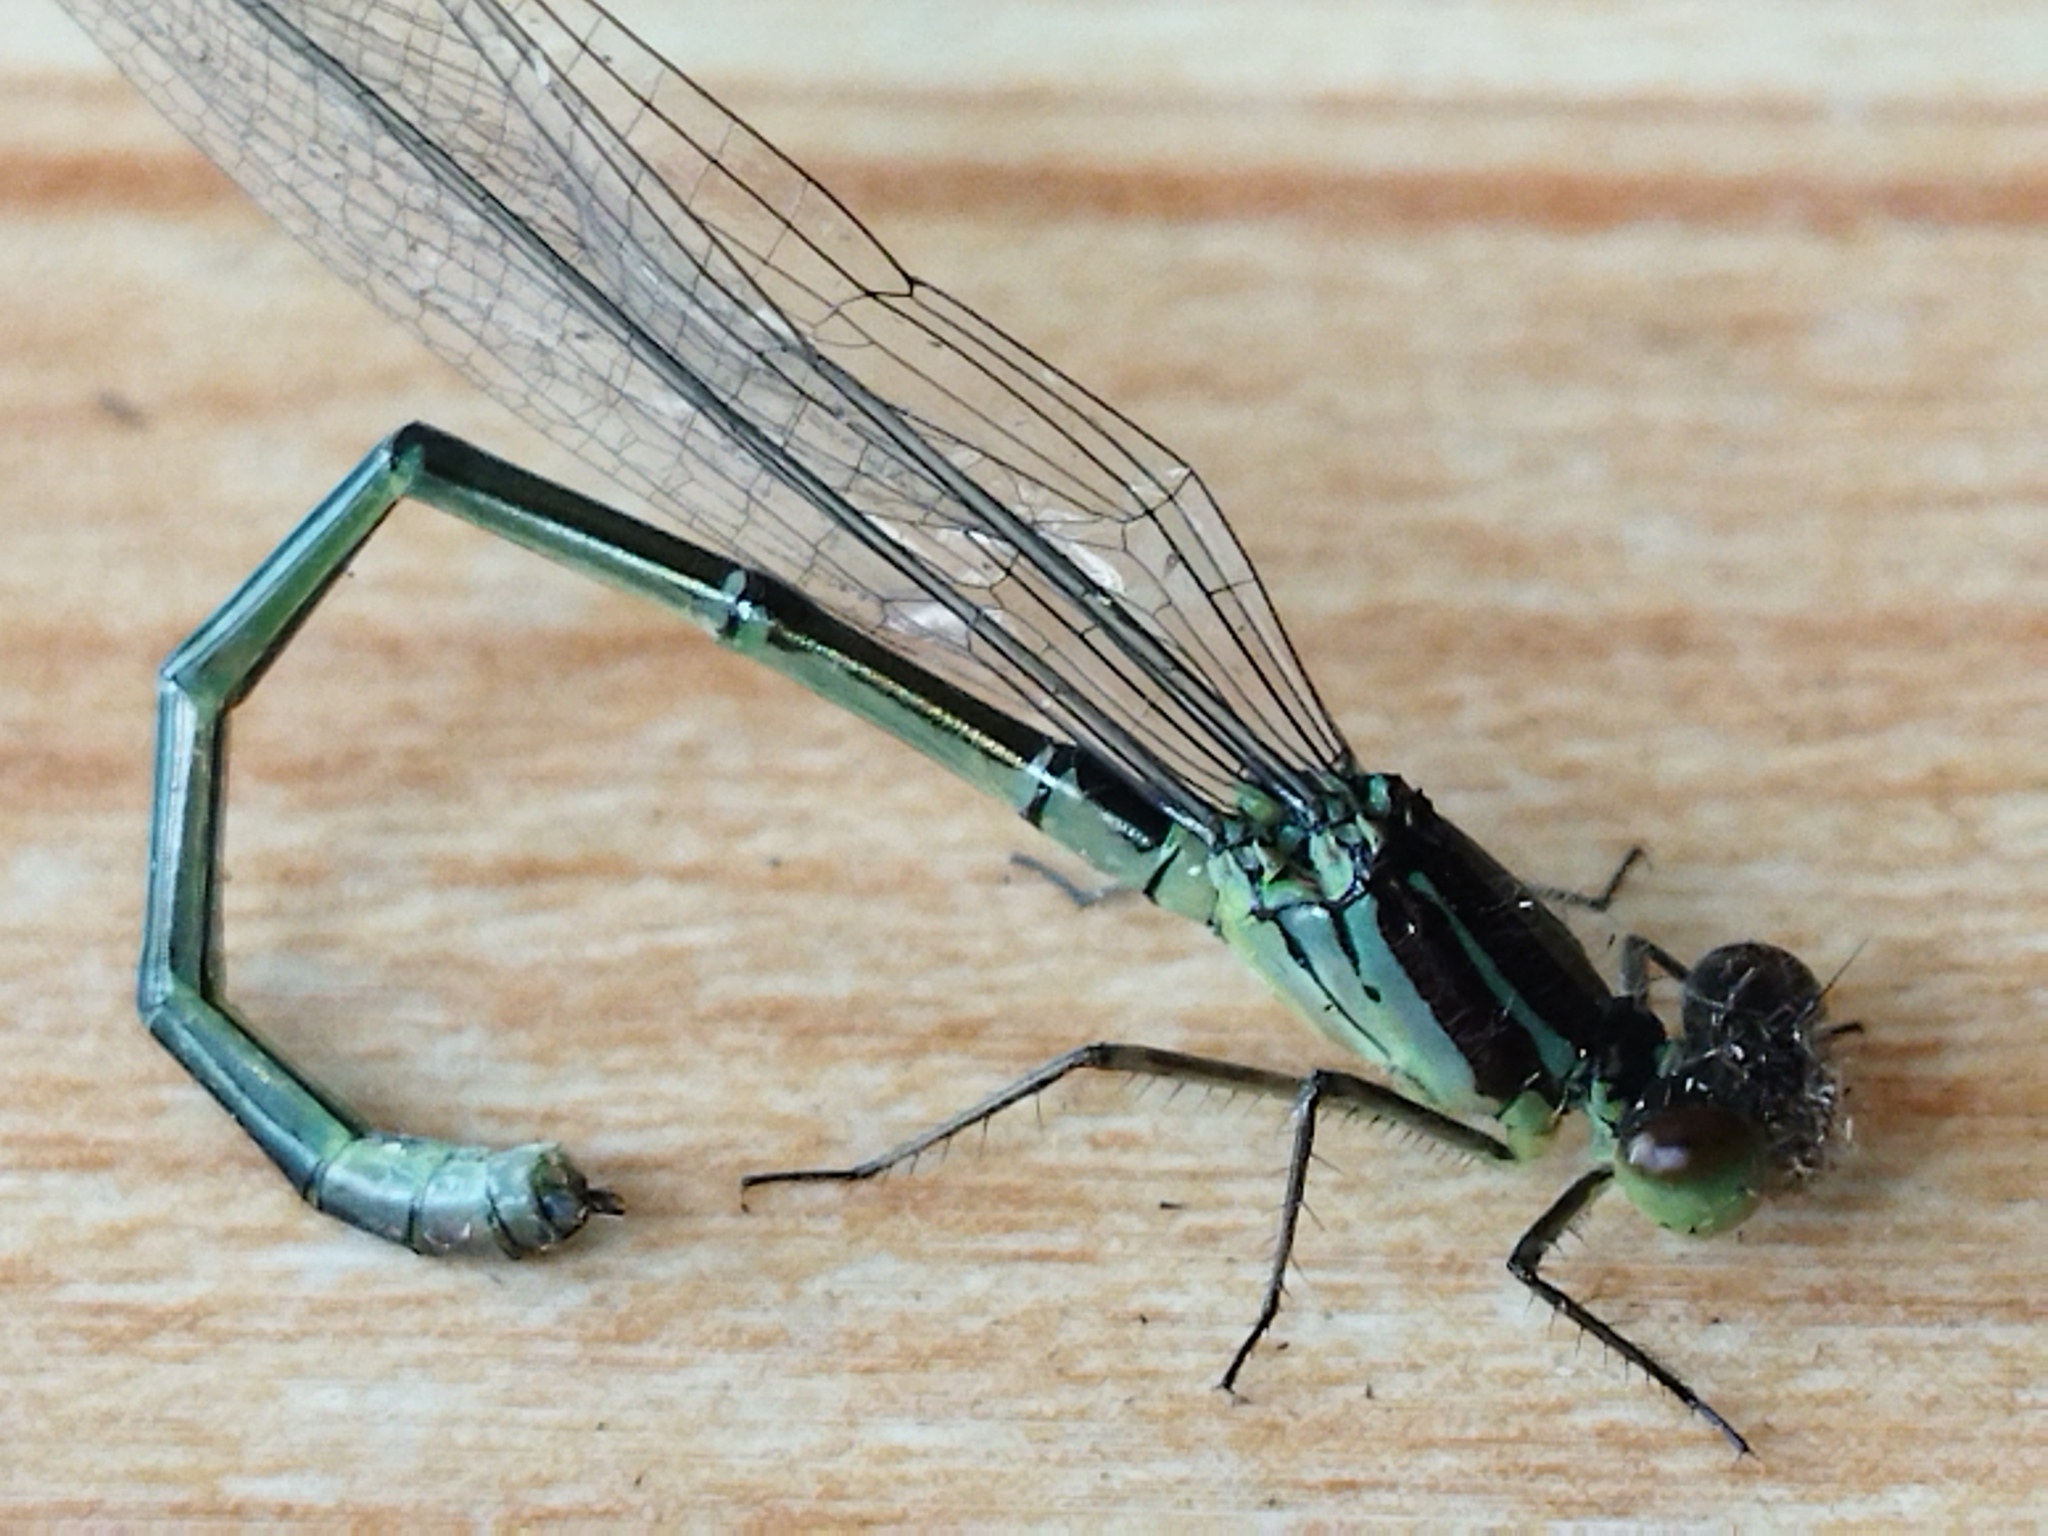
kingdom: Animalia
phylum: Arthropoda
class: Insecta
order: Odonata
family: Coenagrionidae
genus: Erythromma
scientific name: Erythromma viridulum
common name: Small red-eyed damselfly
